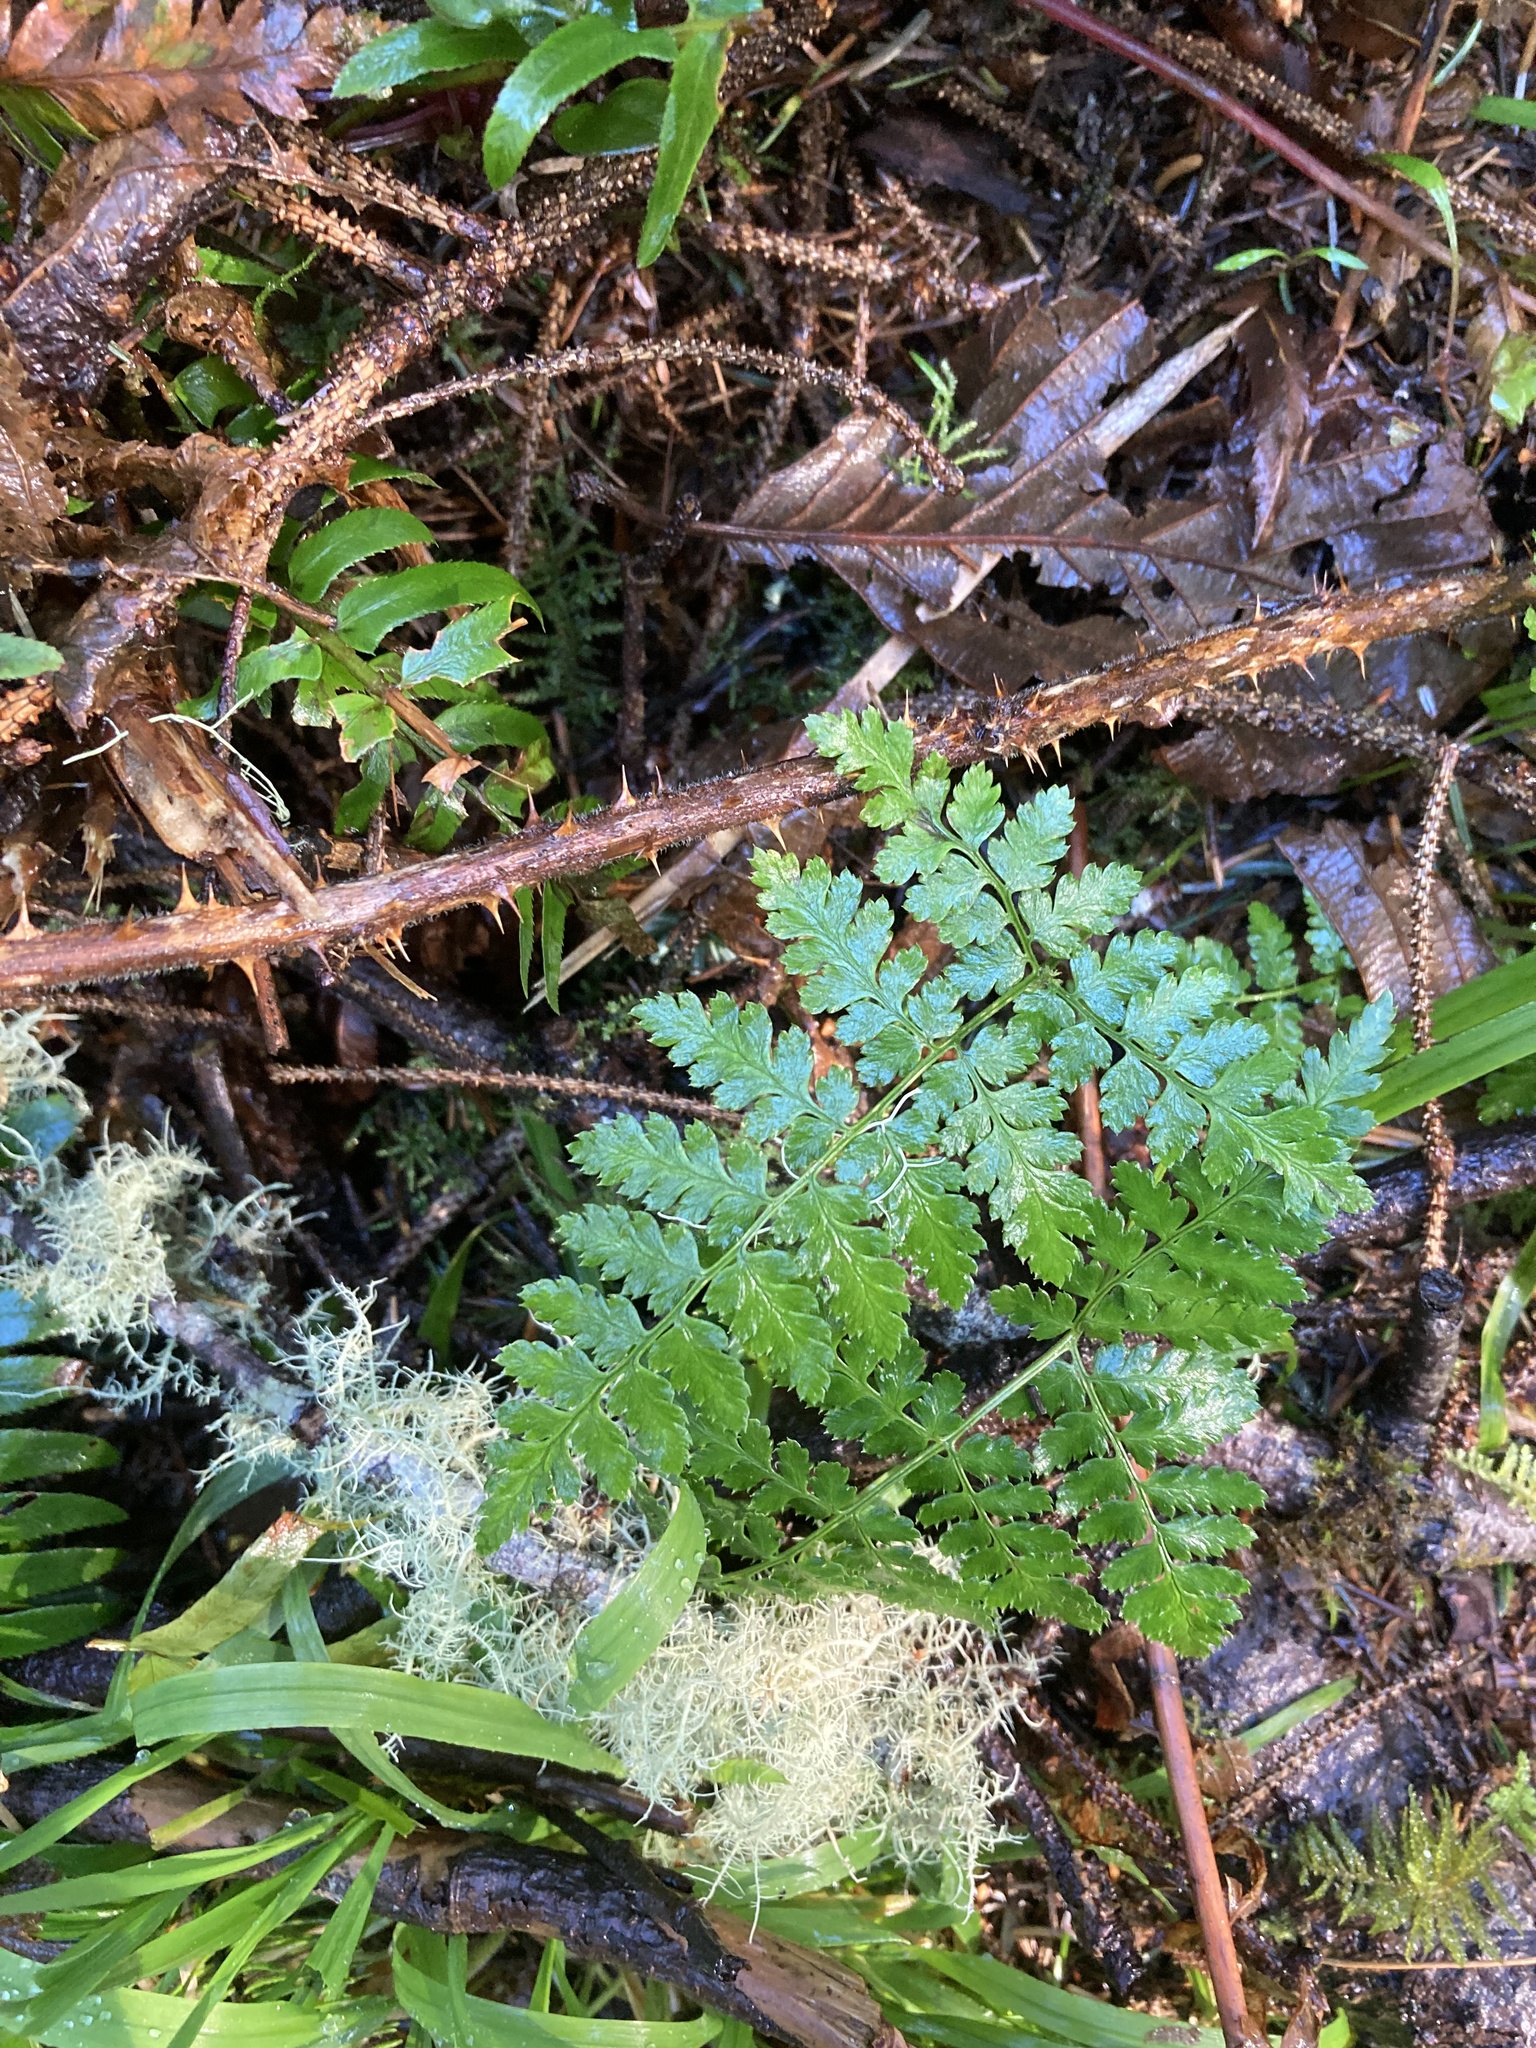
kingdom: Plantae
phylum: Tracheophyta
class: Polypodiopsida
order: Polypodiales
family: Dryopteridaceae
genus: Dryopteris
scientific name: Dryopteris expansa
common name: Northern buckler fern
